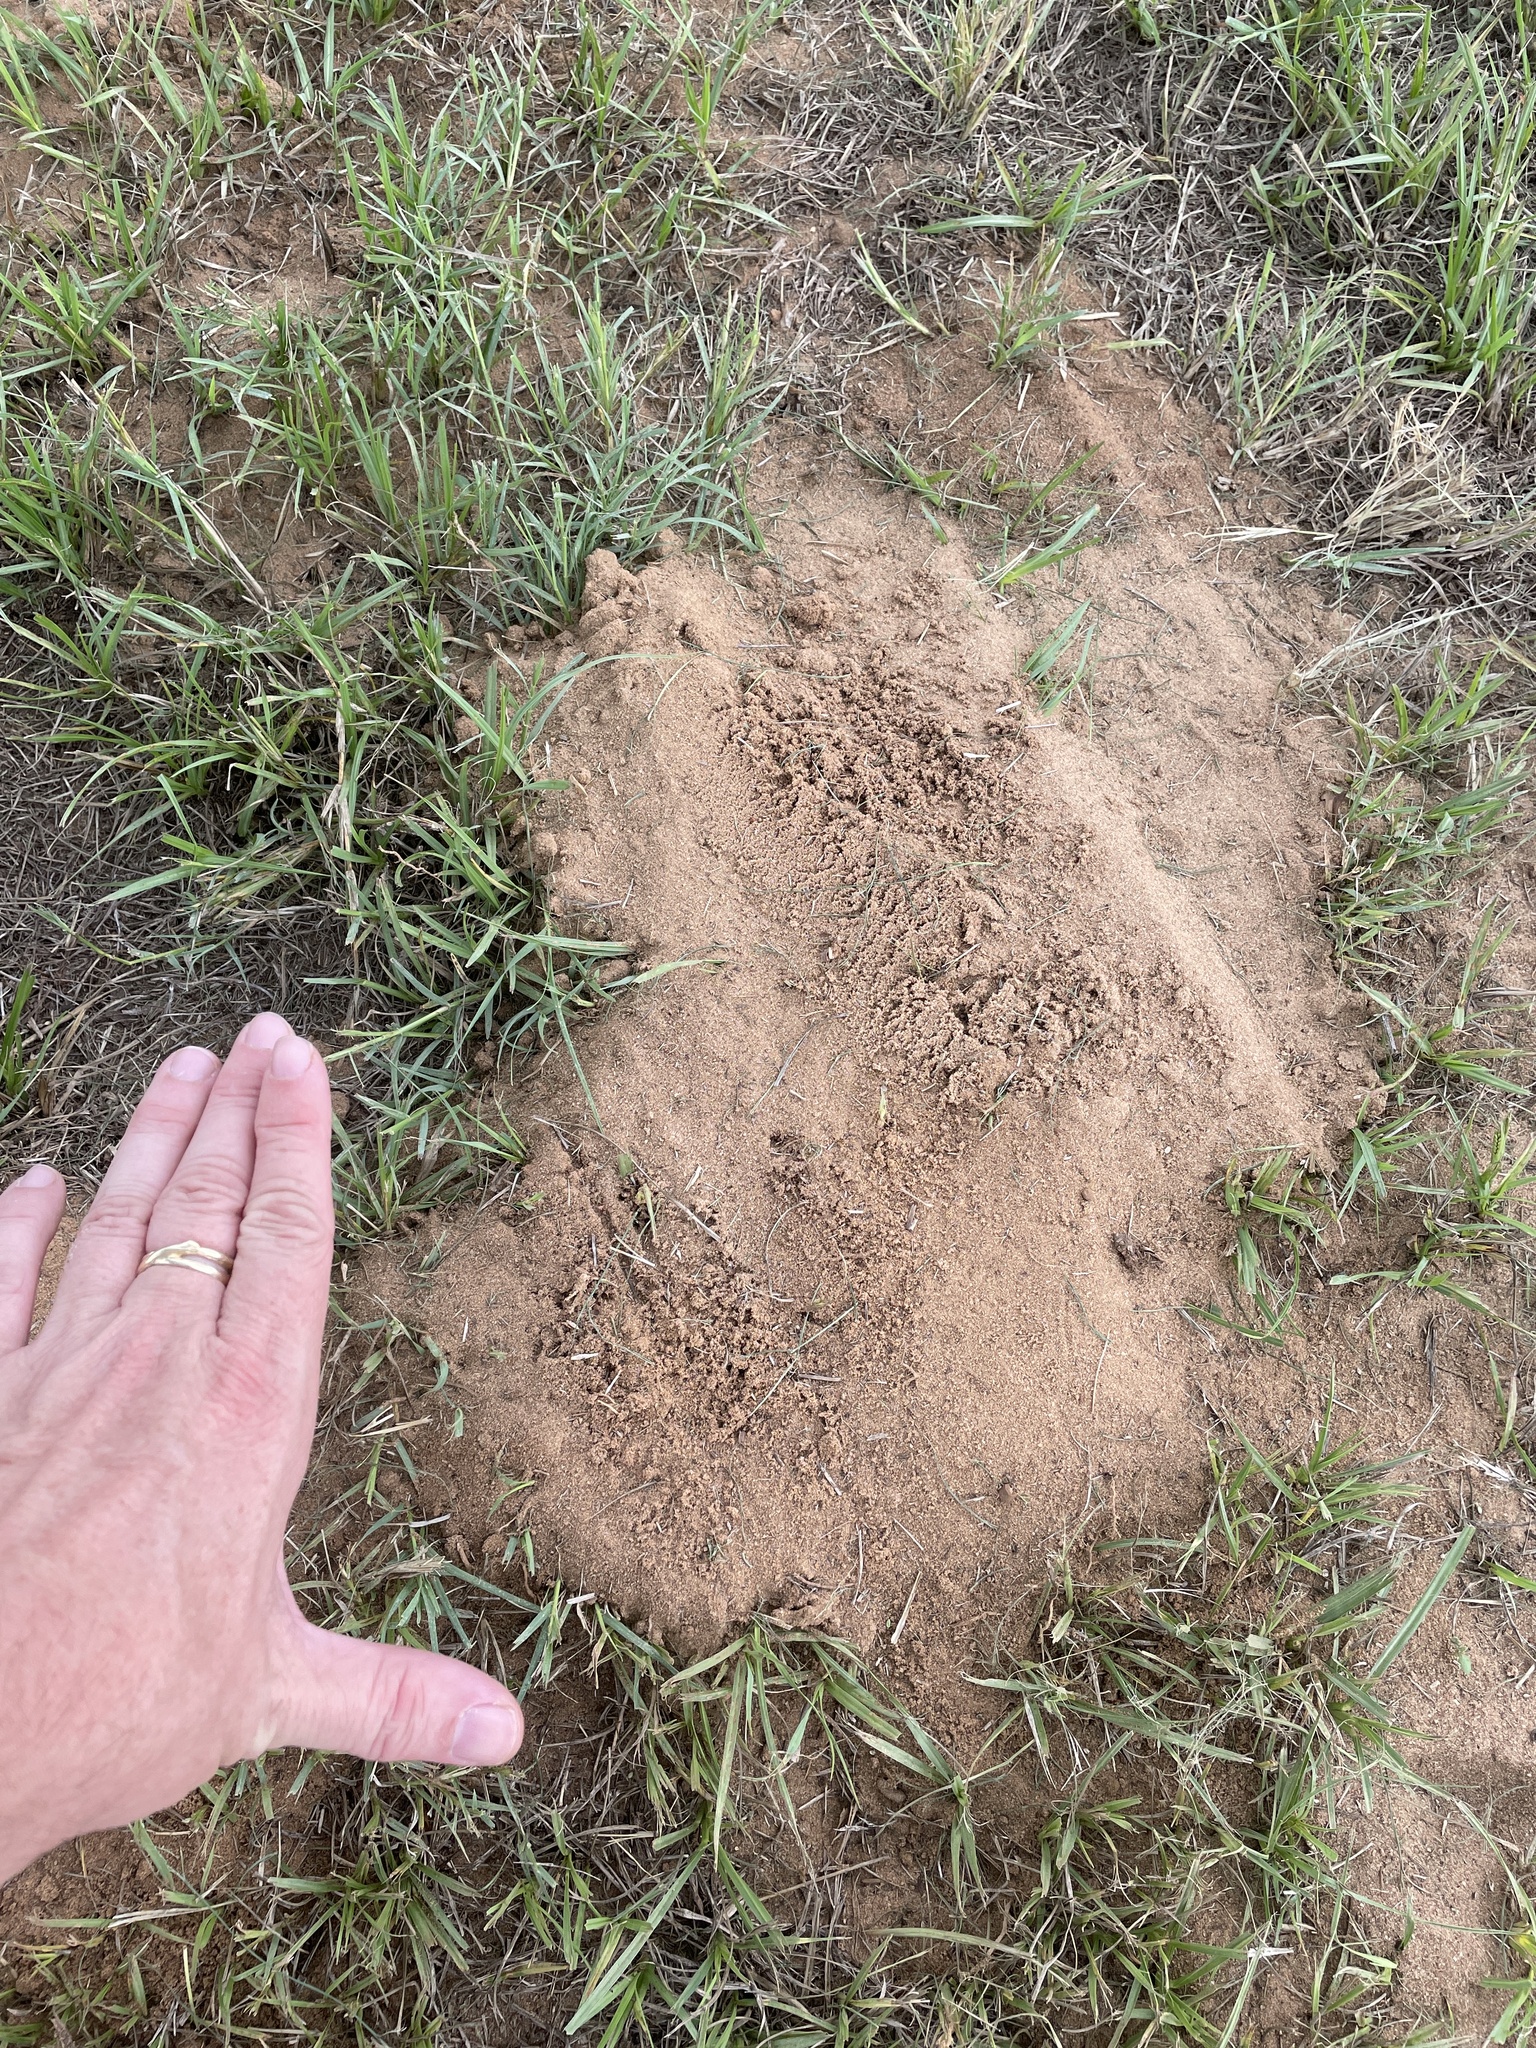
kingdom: Animalia
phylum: Chordata
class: Mammalia
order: Rodentia
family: Geomyidae
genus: Geomys
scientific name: Geomys breviceps
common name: Baird's pocket gopher
